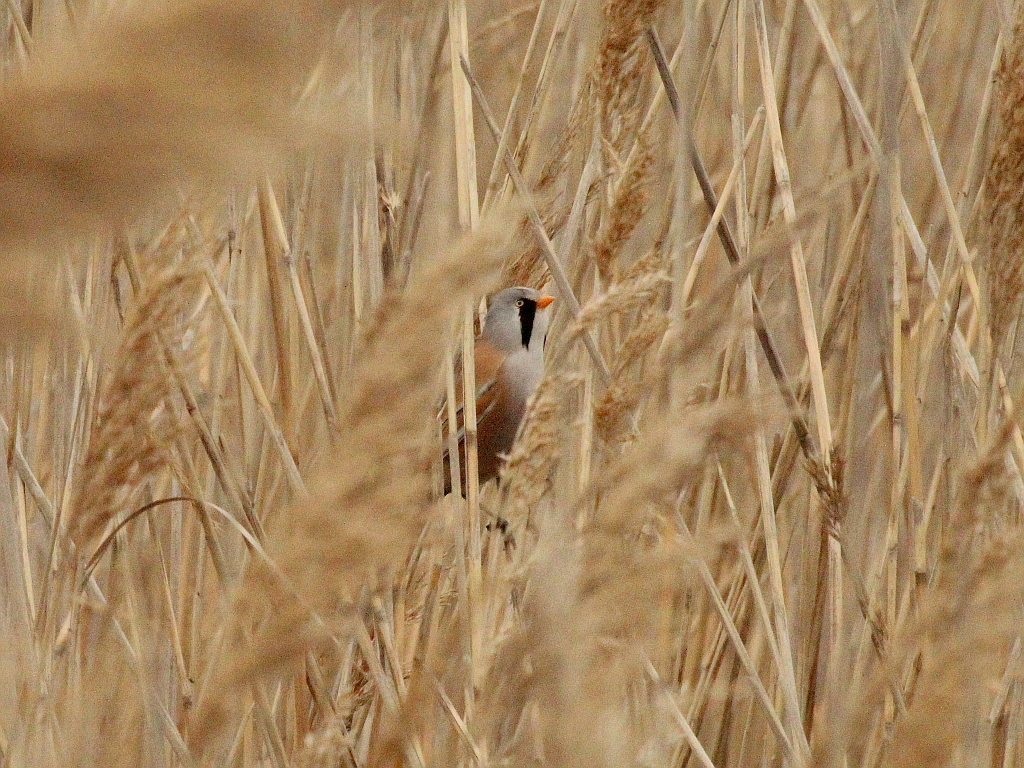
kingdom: Animalia
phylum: Chordata
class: Aves
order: Passeriformes
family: Panuridae
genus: Panurus
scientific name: Panurus biarmicus
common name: Bearded reedling
